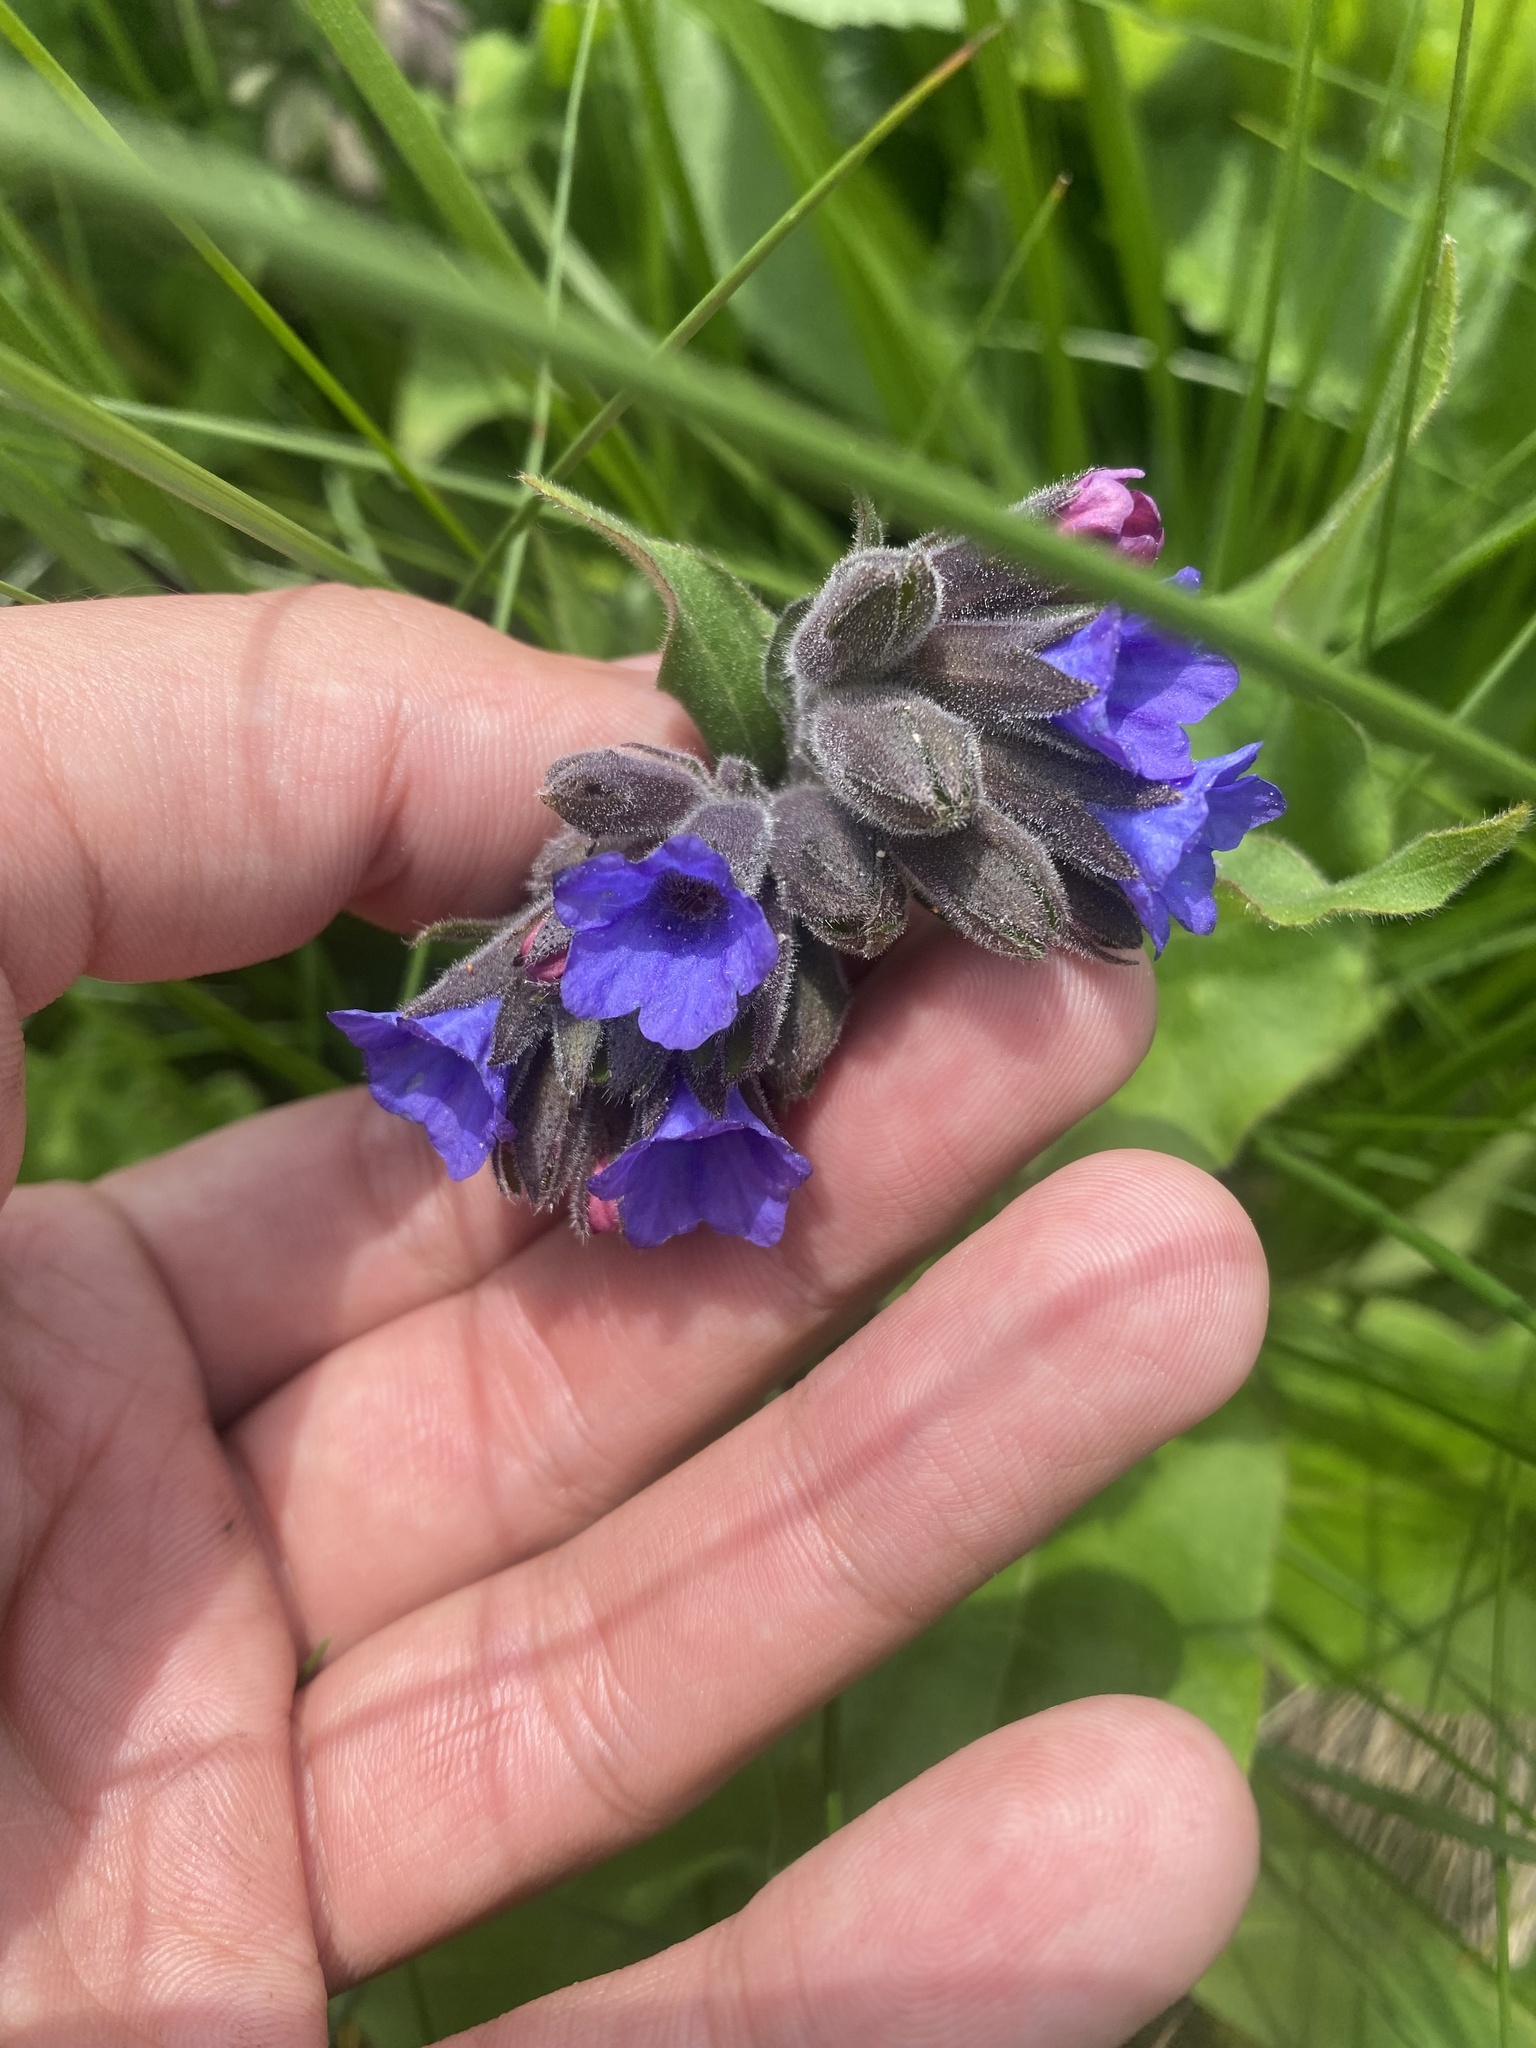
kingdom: Plantae
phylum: Tracheophyta
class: Magnoliopsida
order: Boraginales
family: Boraginaceae
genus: Pulmonaria
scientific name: Pulmonaria mollis
